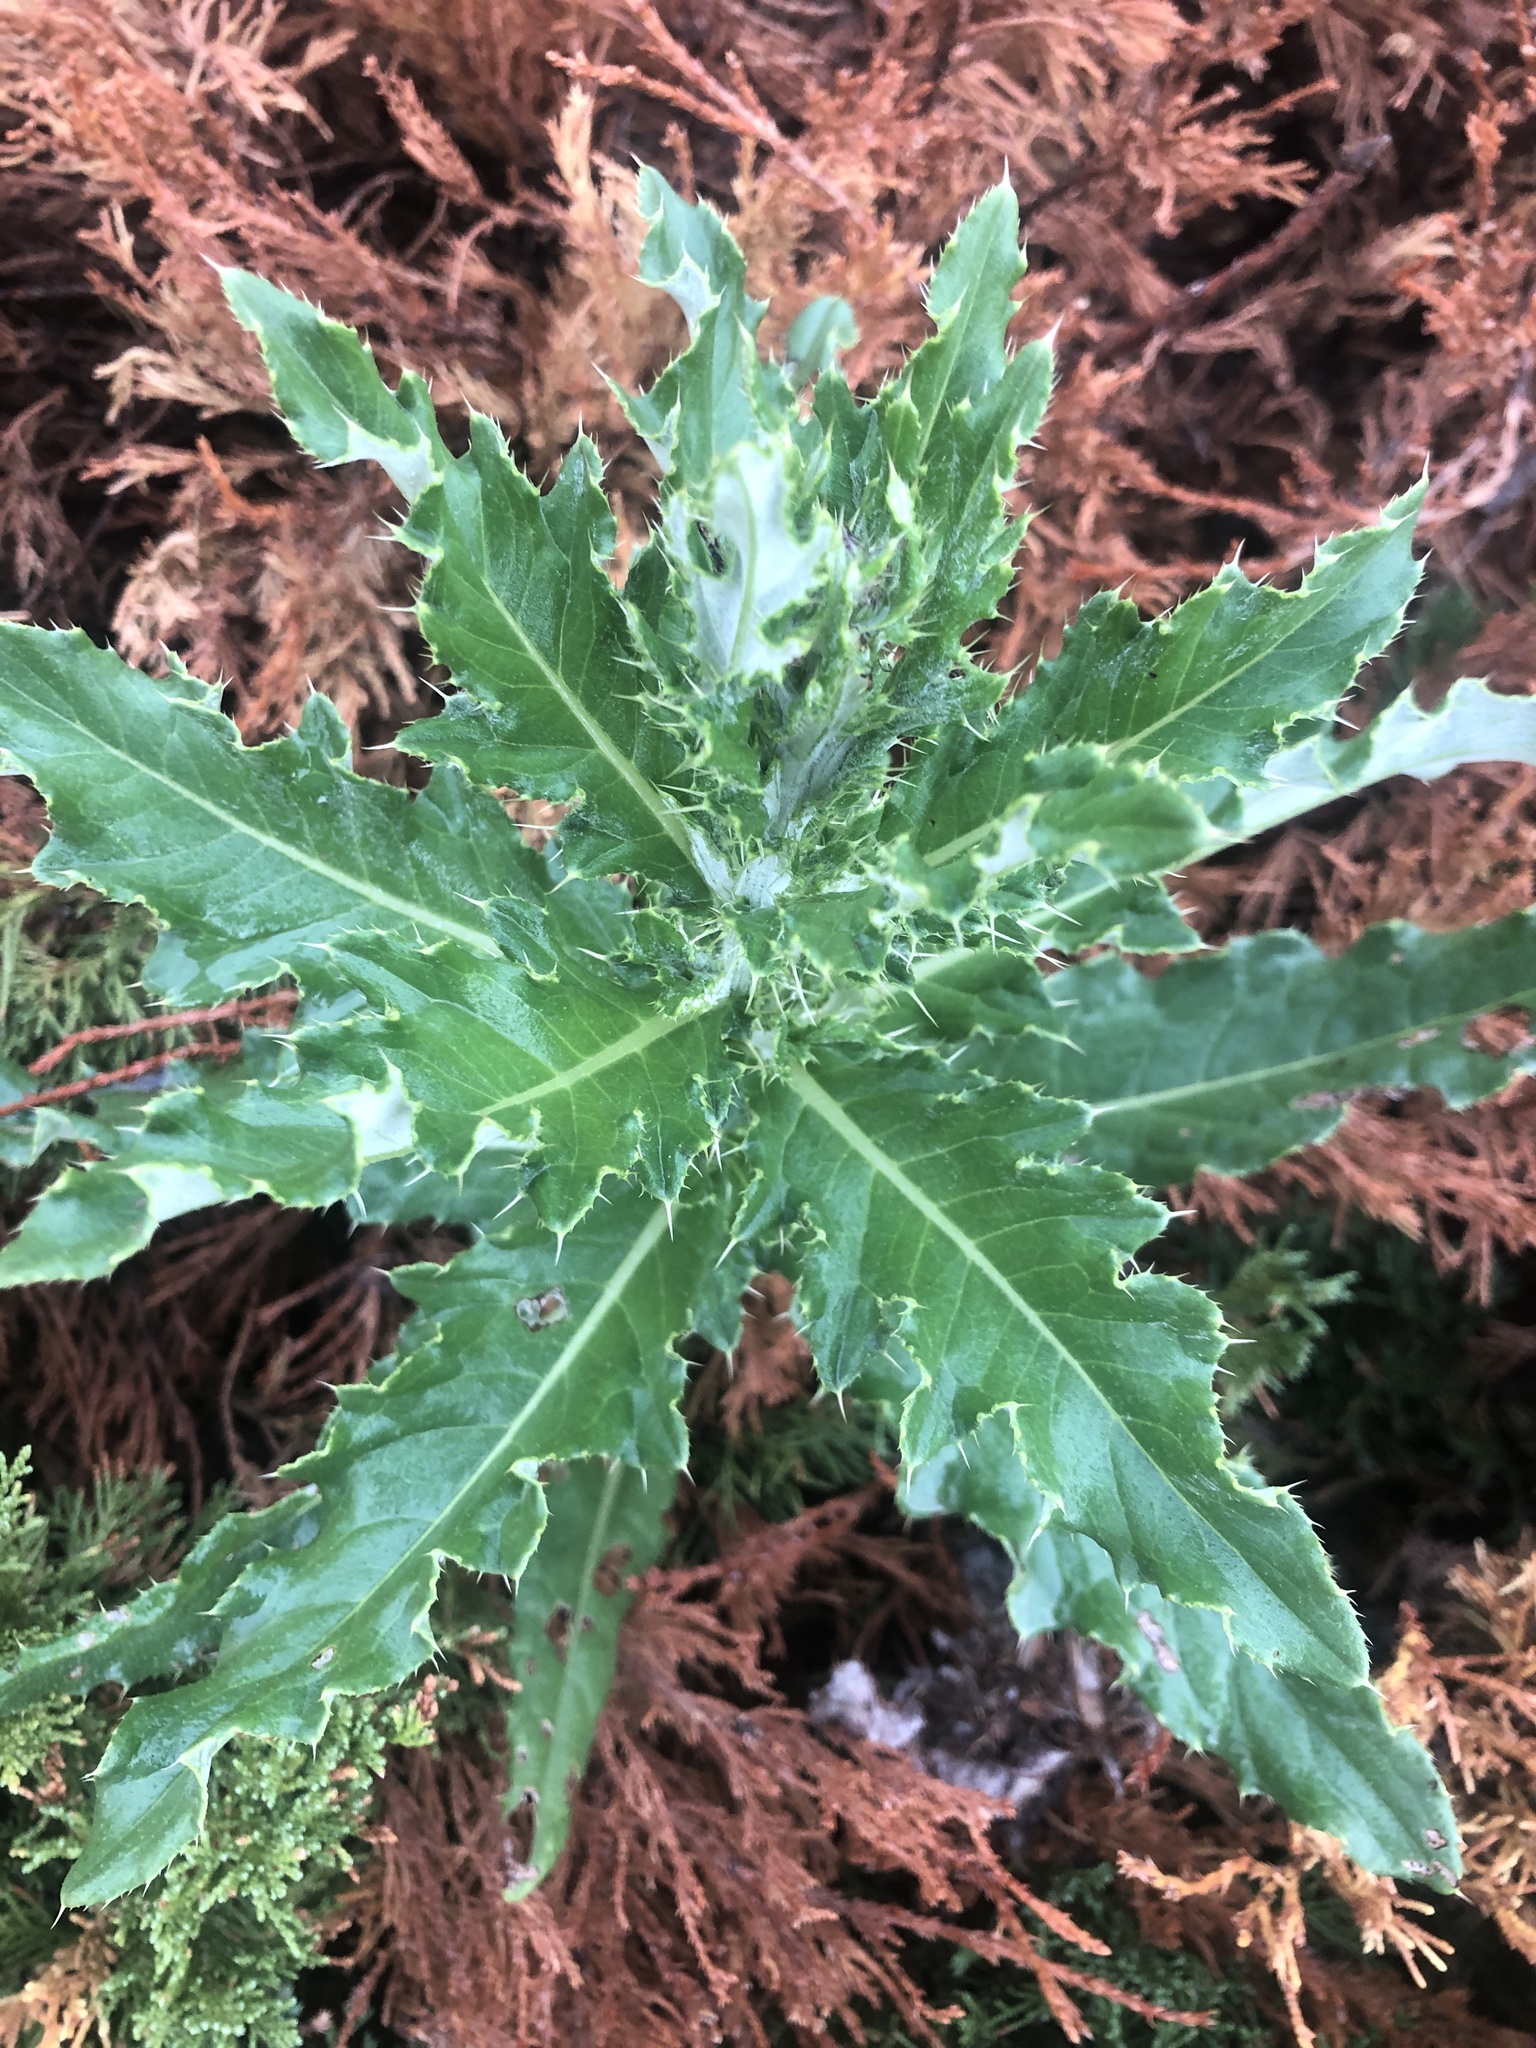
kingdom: Plantae
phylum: Tracheophyta
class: Magnoliopsida
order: Asterales
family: Asteraceae
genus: Cirsium
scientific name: Cirsium arvense
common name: Creeping thistle
